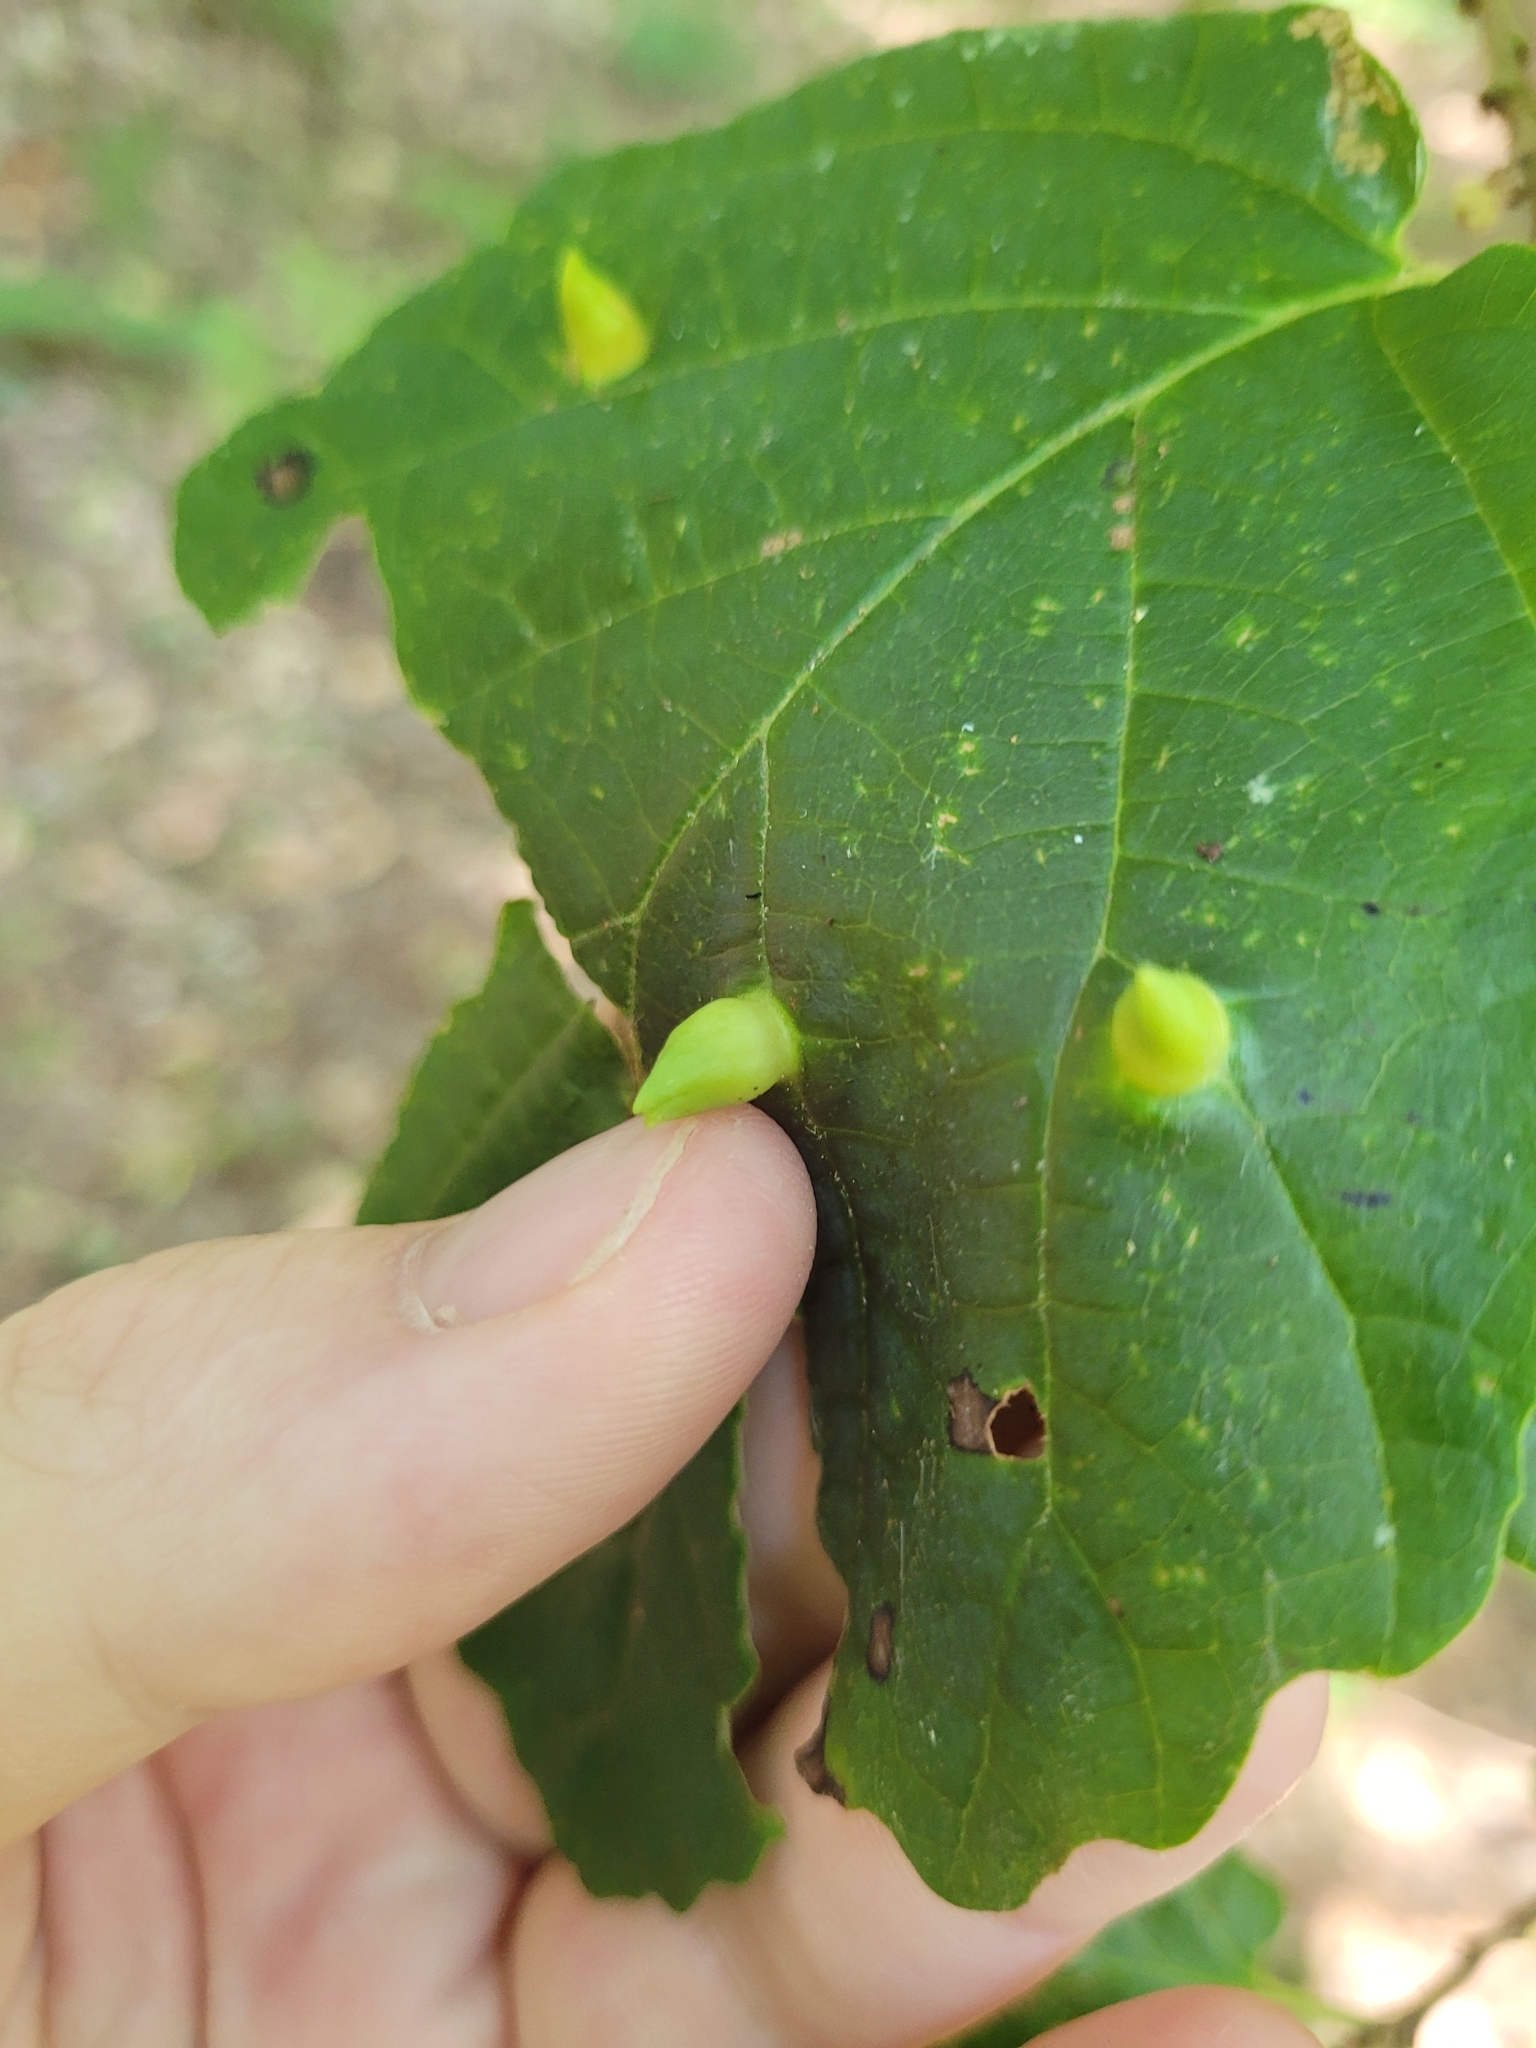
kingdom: Animalia
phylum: Arthropoda
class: Insecta
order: Hemiptera
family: Aphididae
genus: Hormaphis
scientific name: Hormaphis hamamelidis
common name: Witch-hazel cone gall aphid
